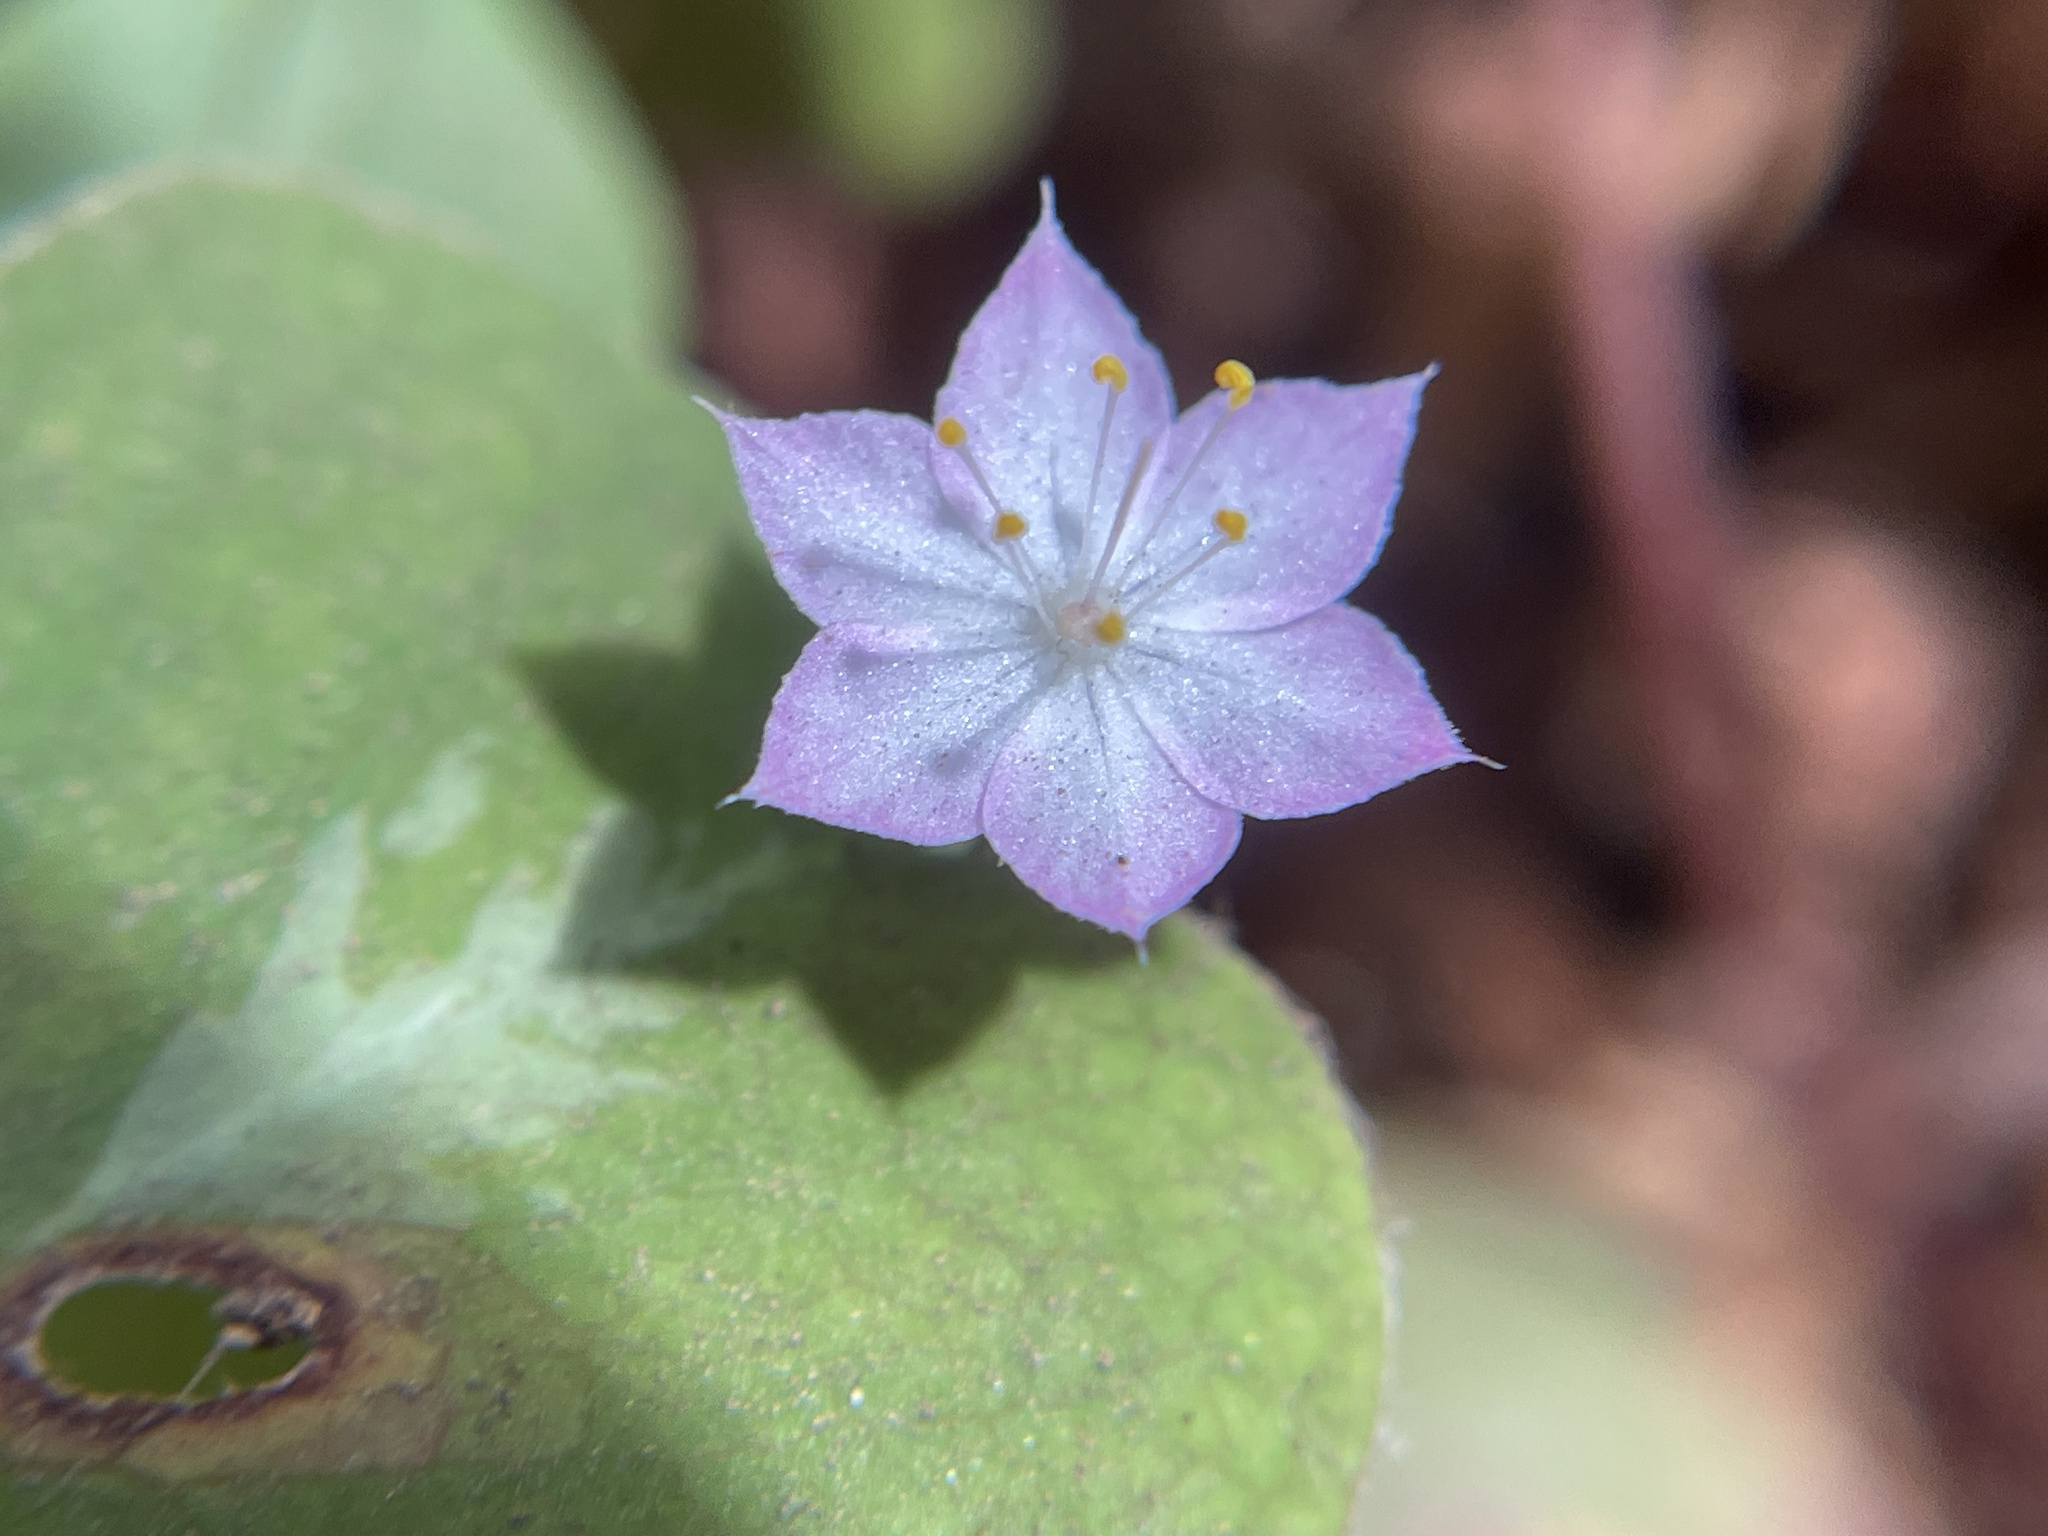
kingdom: Plantae
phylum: Tracheophyta
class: Magnoliopsida
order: Ericales
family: Primulaceae
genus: Lysimachia
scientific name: Lysimachia latifolia
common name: Pacific starflower
